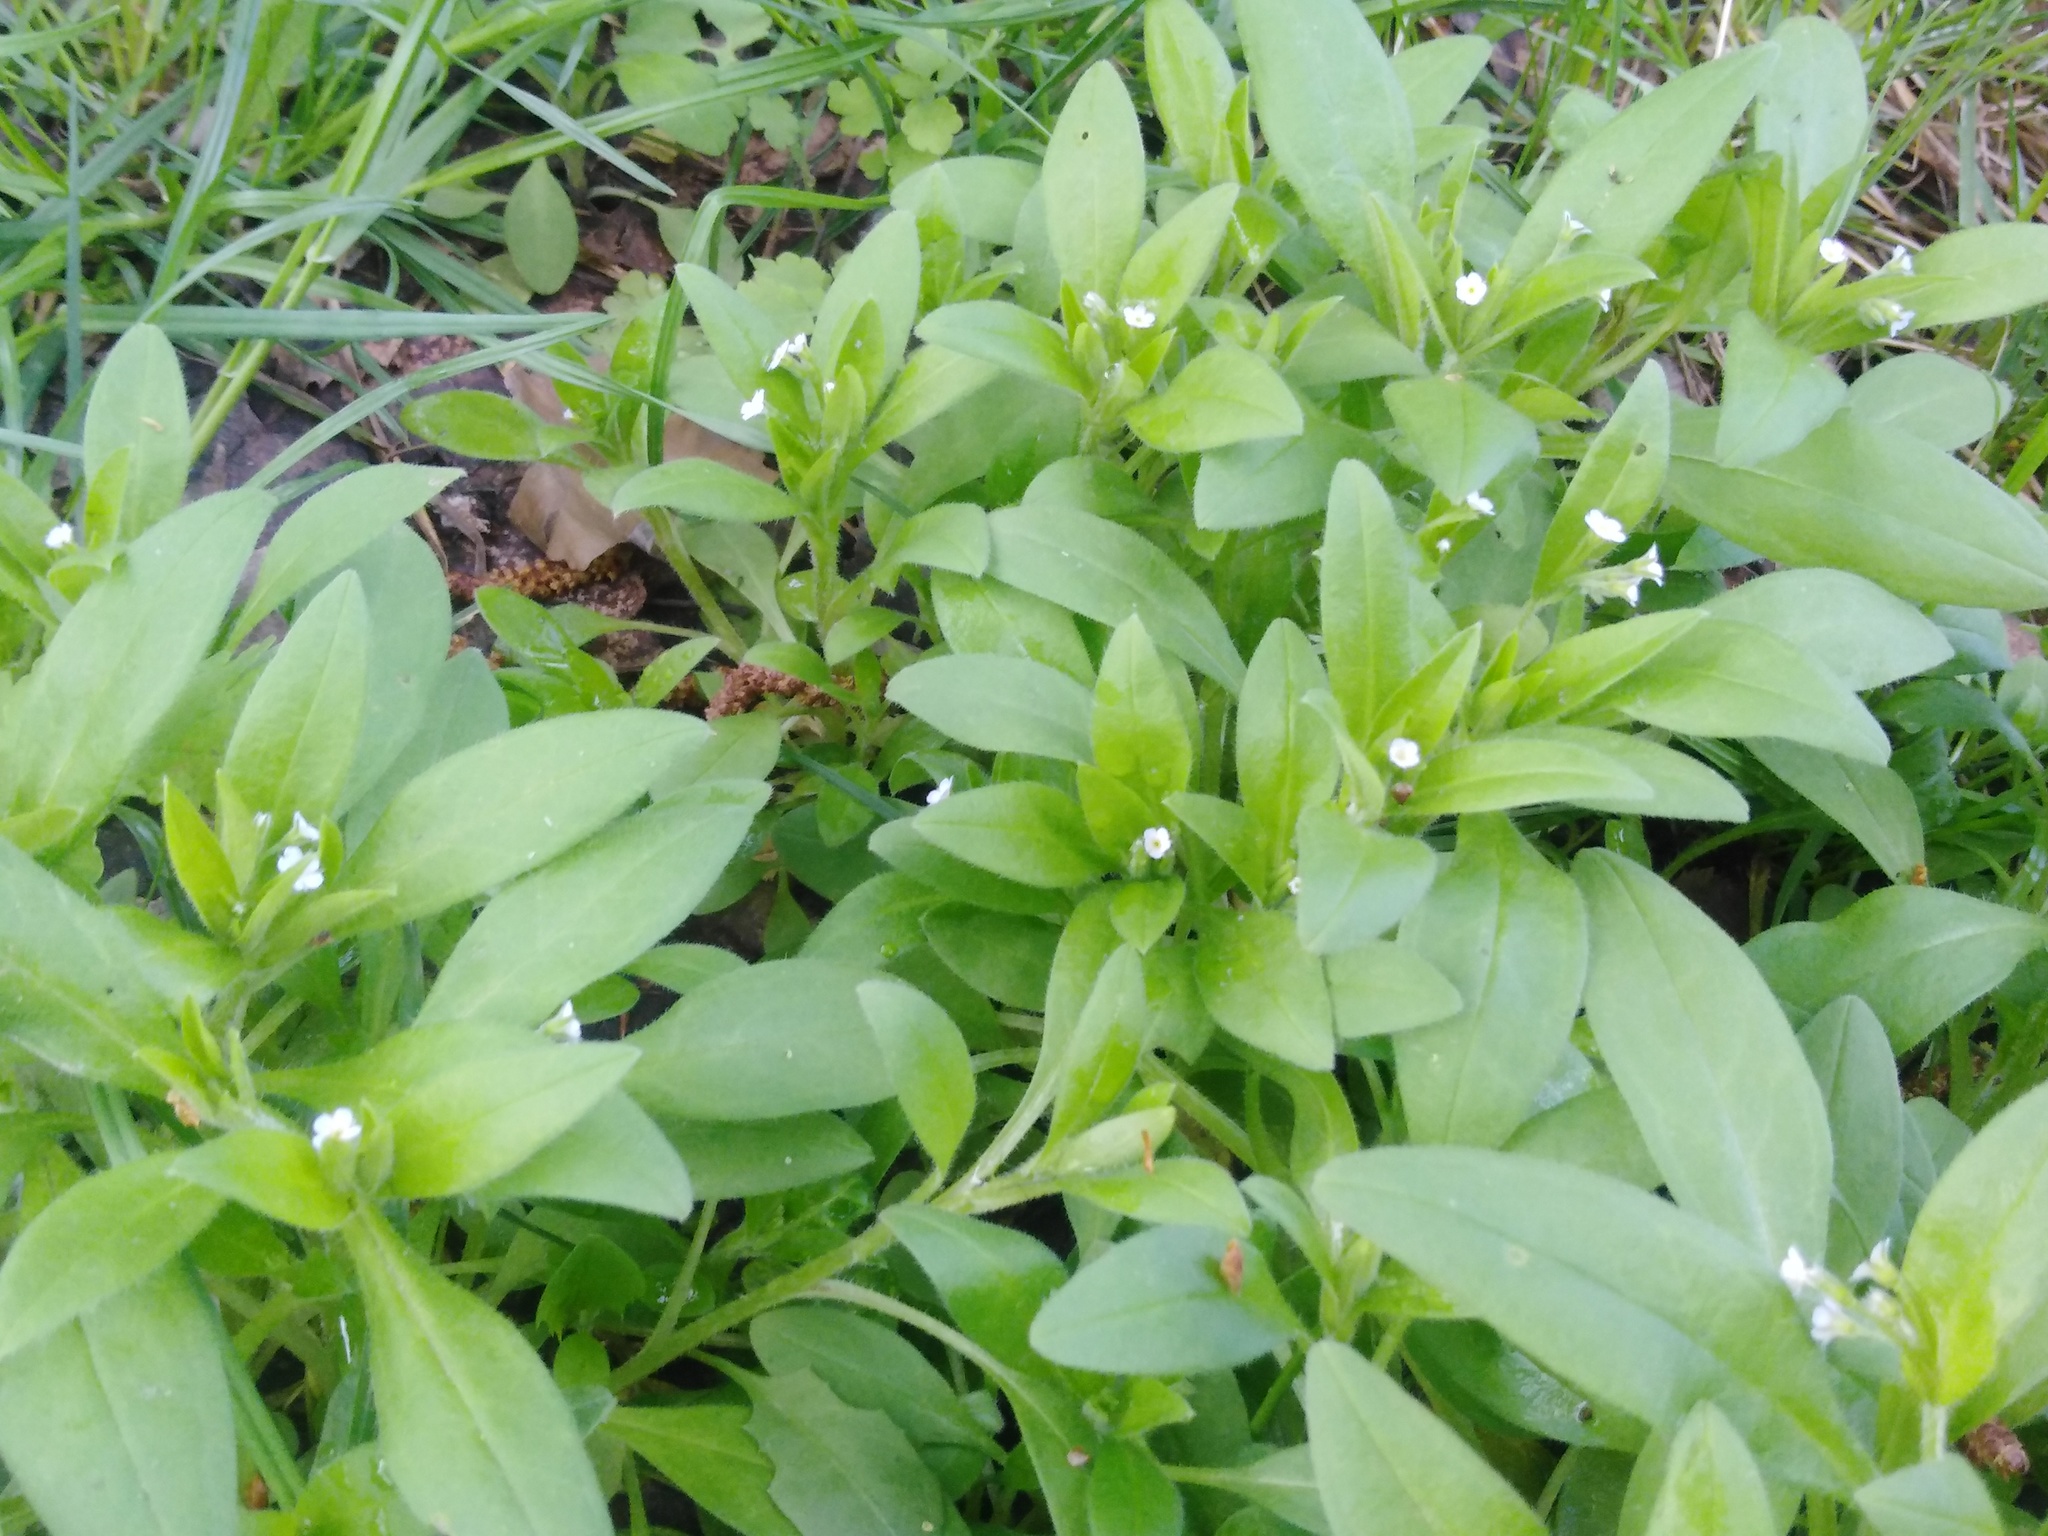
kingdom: Plantae
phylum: Tracheophyta
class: Magnoliopsida
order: Boraginales
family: Boraginaceae
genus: Myosotis
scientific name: Myosotis sparsiflora
